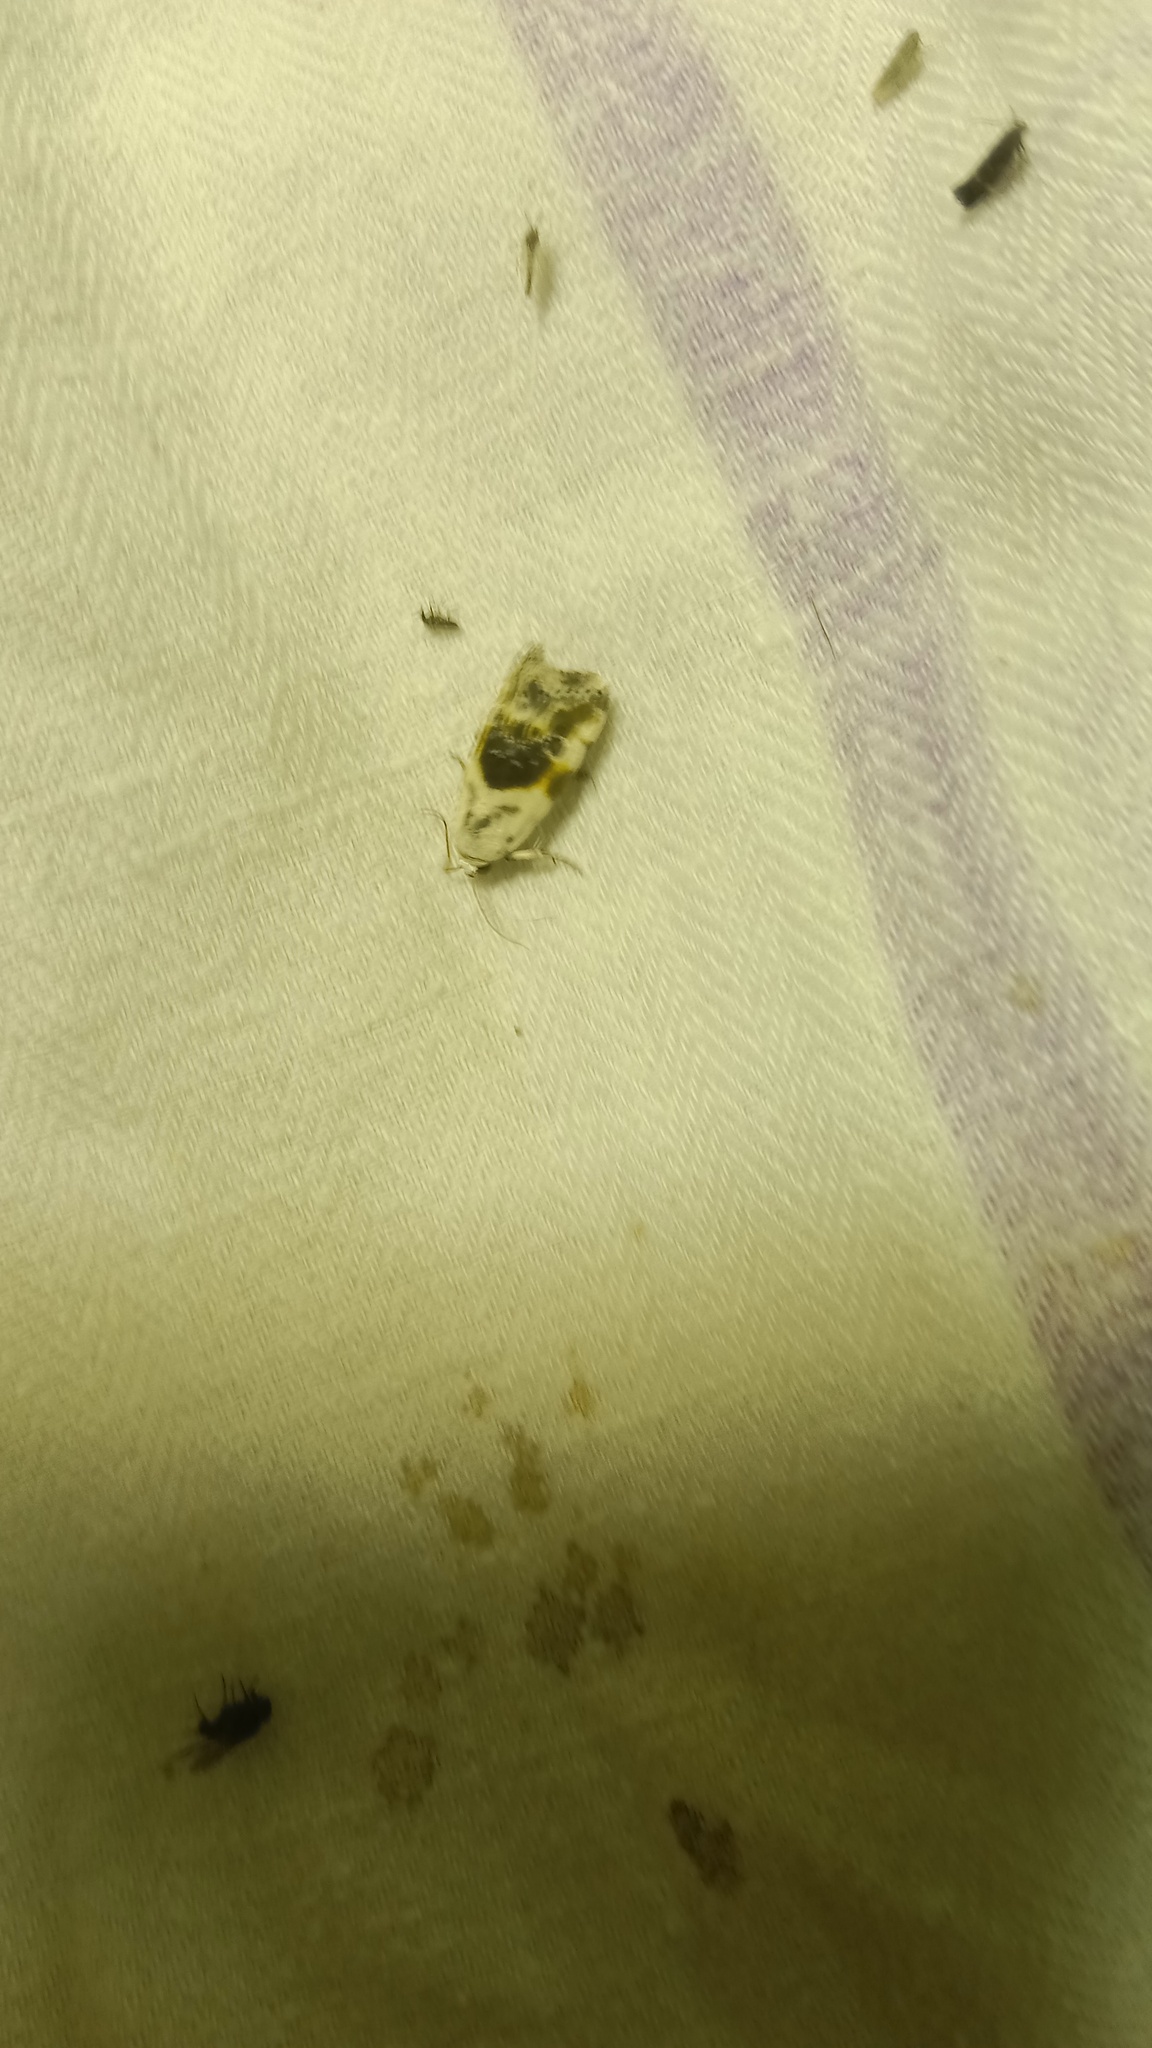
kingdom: Animalia
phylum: Arthropoda
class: Insecta
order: Lepidoptera
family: Noctuidae
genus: Acontia
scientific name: Acontia candefacta
